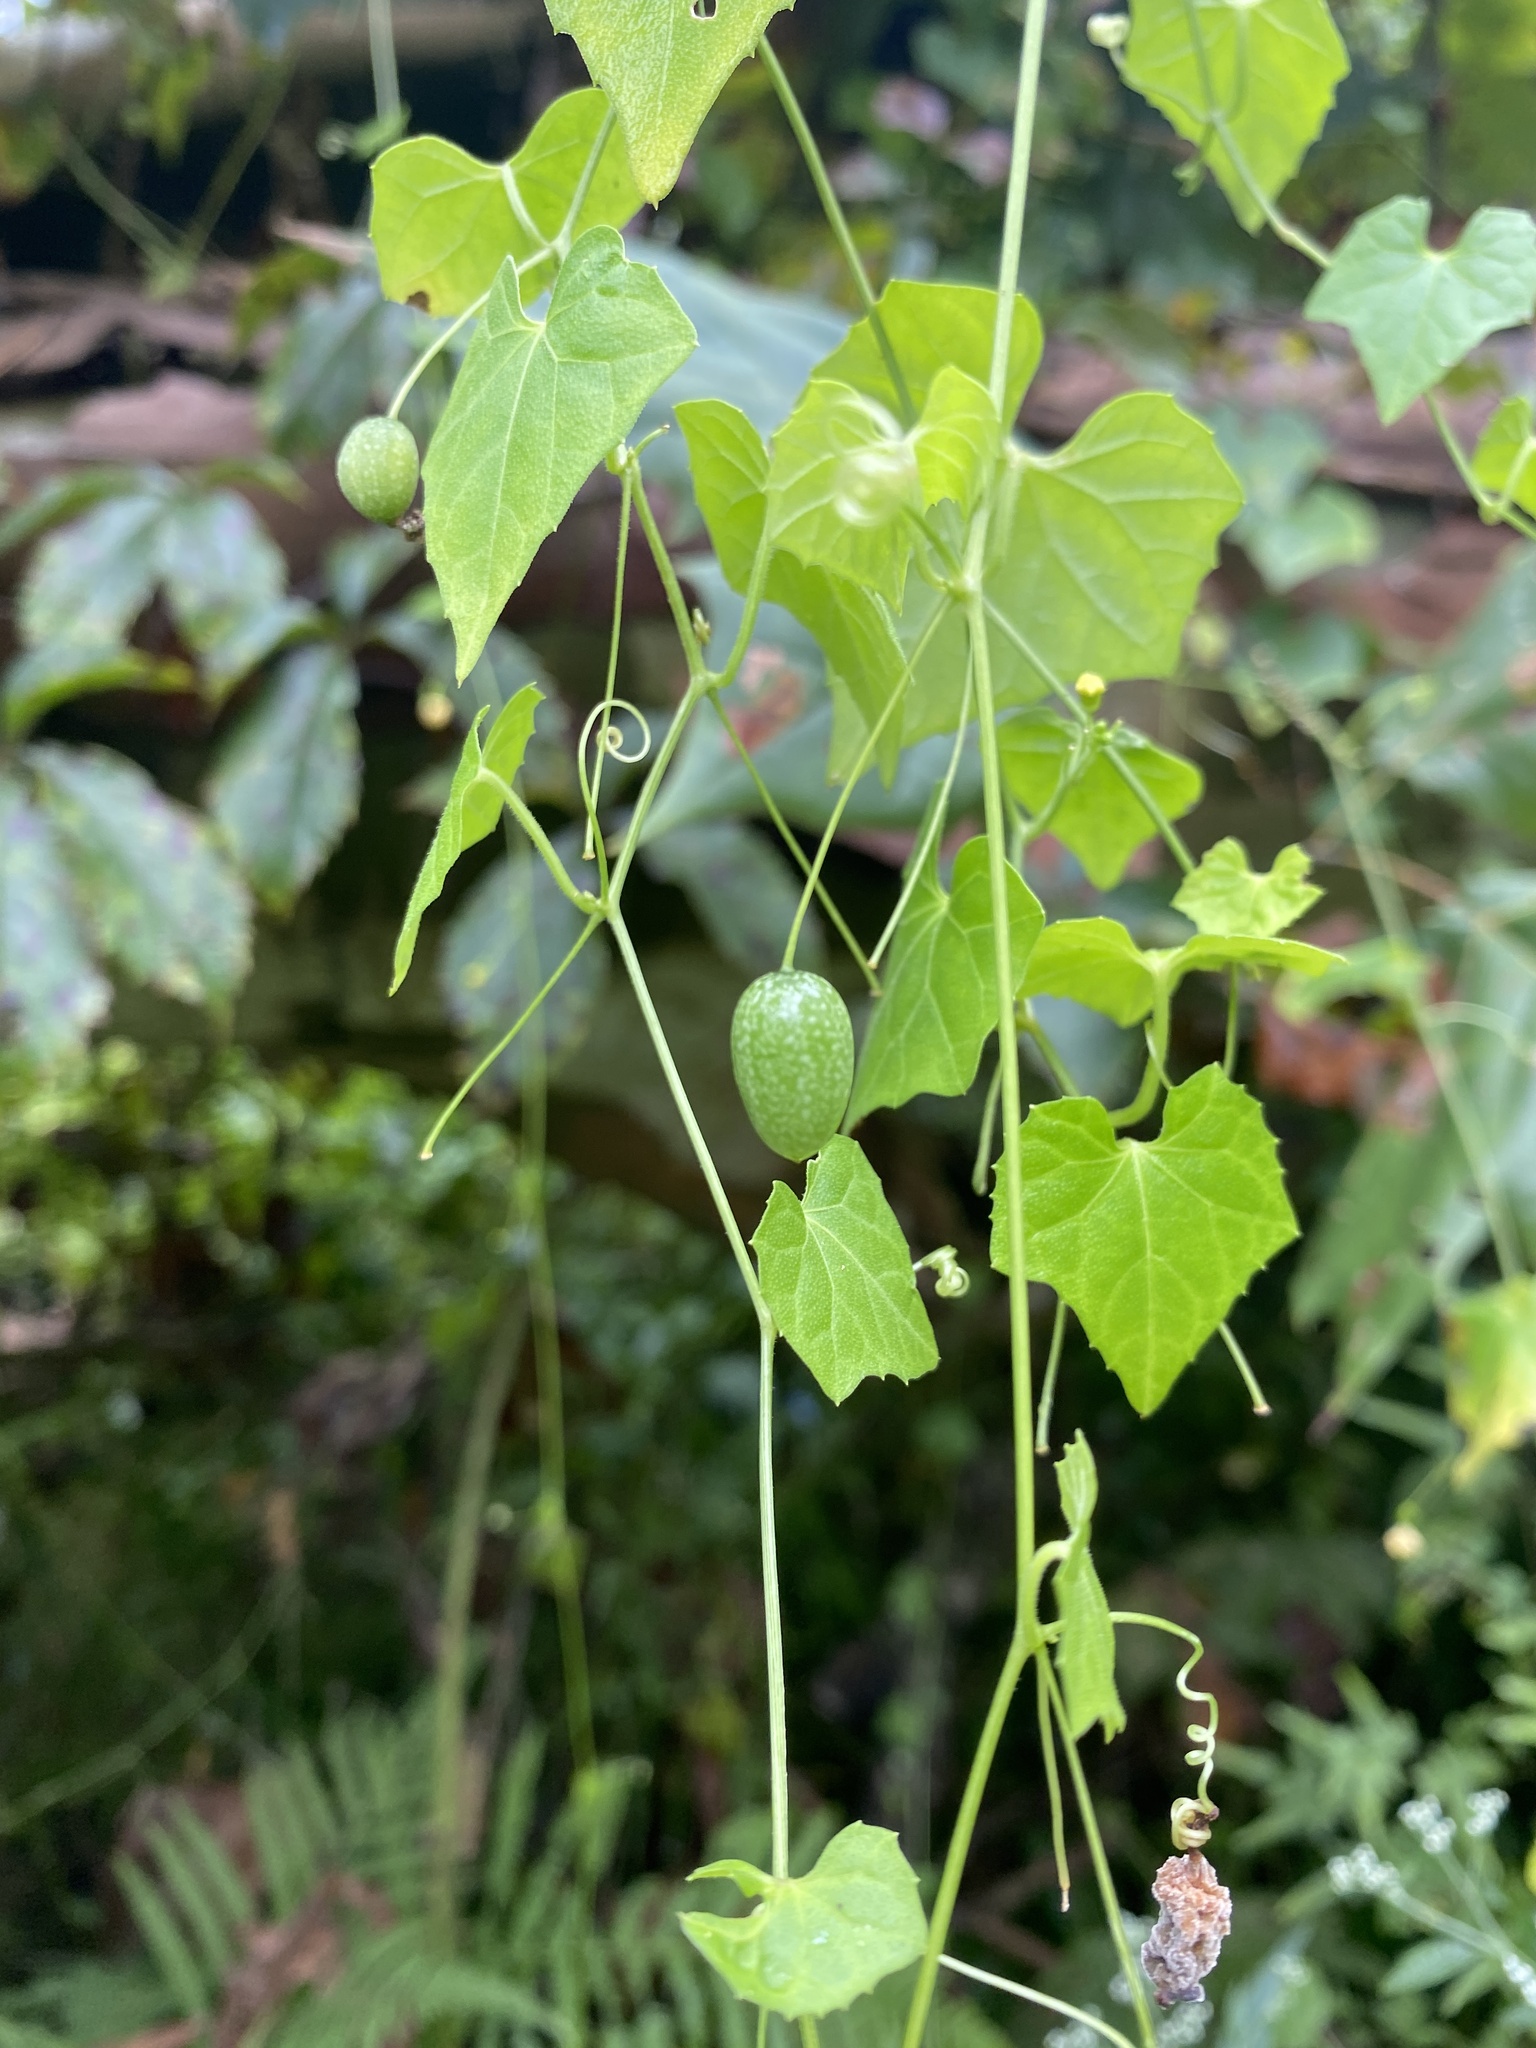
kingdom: Plantae
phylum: Tracheophyta
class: Magnoliopsida
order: Cucurbitales
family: Cucurbitaceae
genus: Melothria
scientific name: Melothria pendula
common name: Creeping-cucumber
